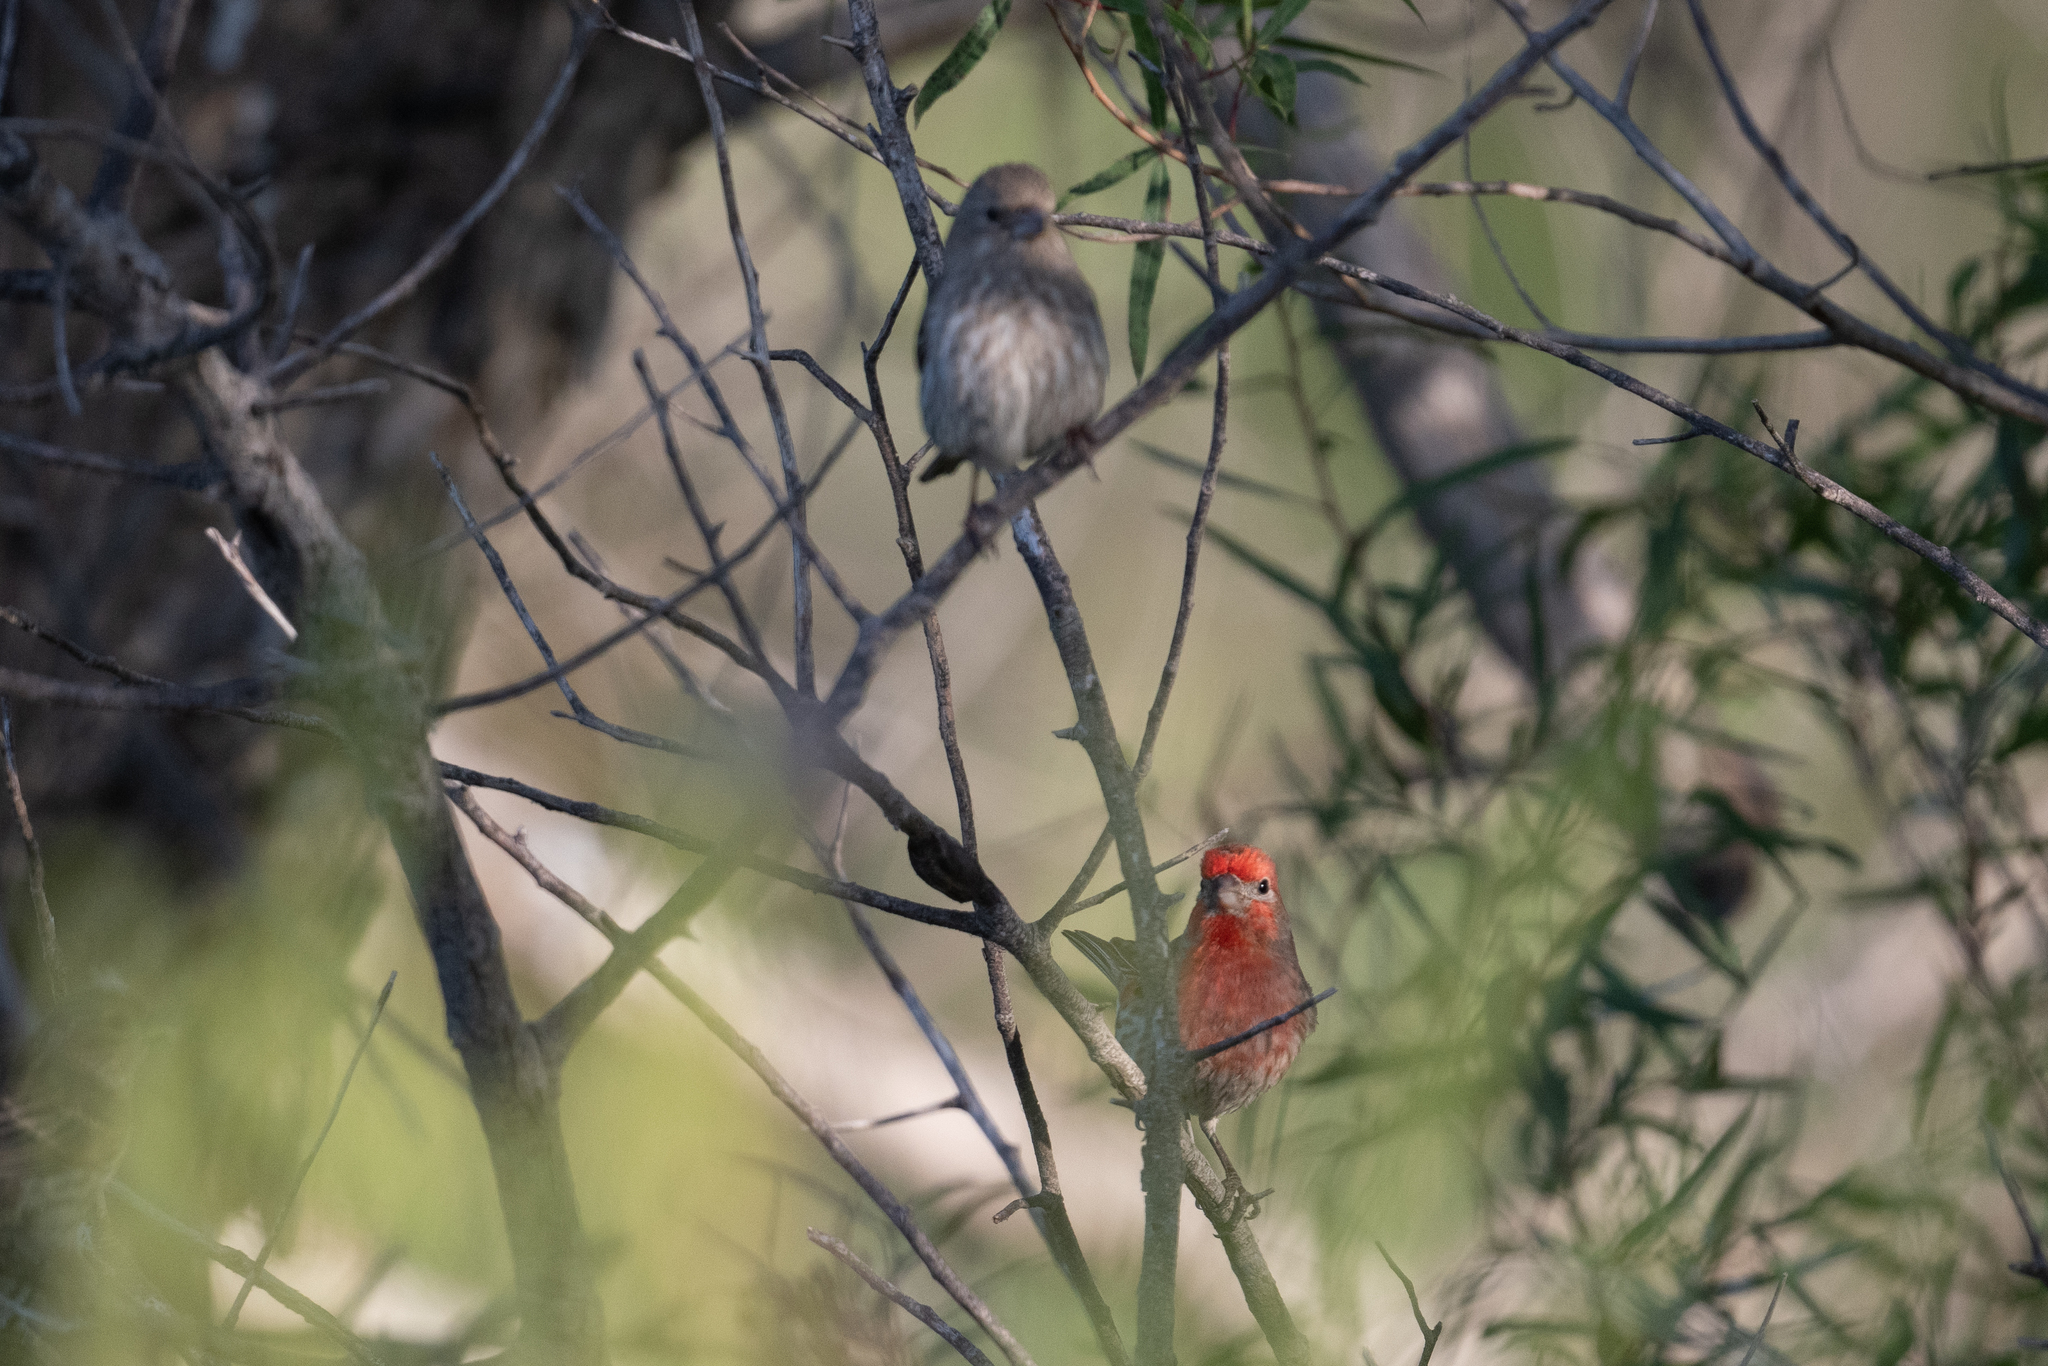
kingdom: Animalia
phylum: Chordata
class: Aves
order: Passeriformes
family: Fringillidae
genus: Haemorhous
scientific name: Haemorhous mexicanus
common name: House finch
